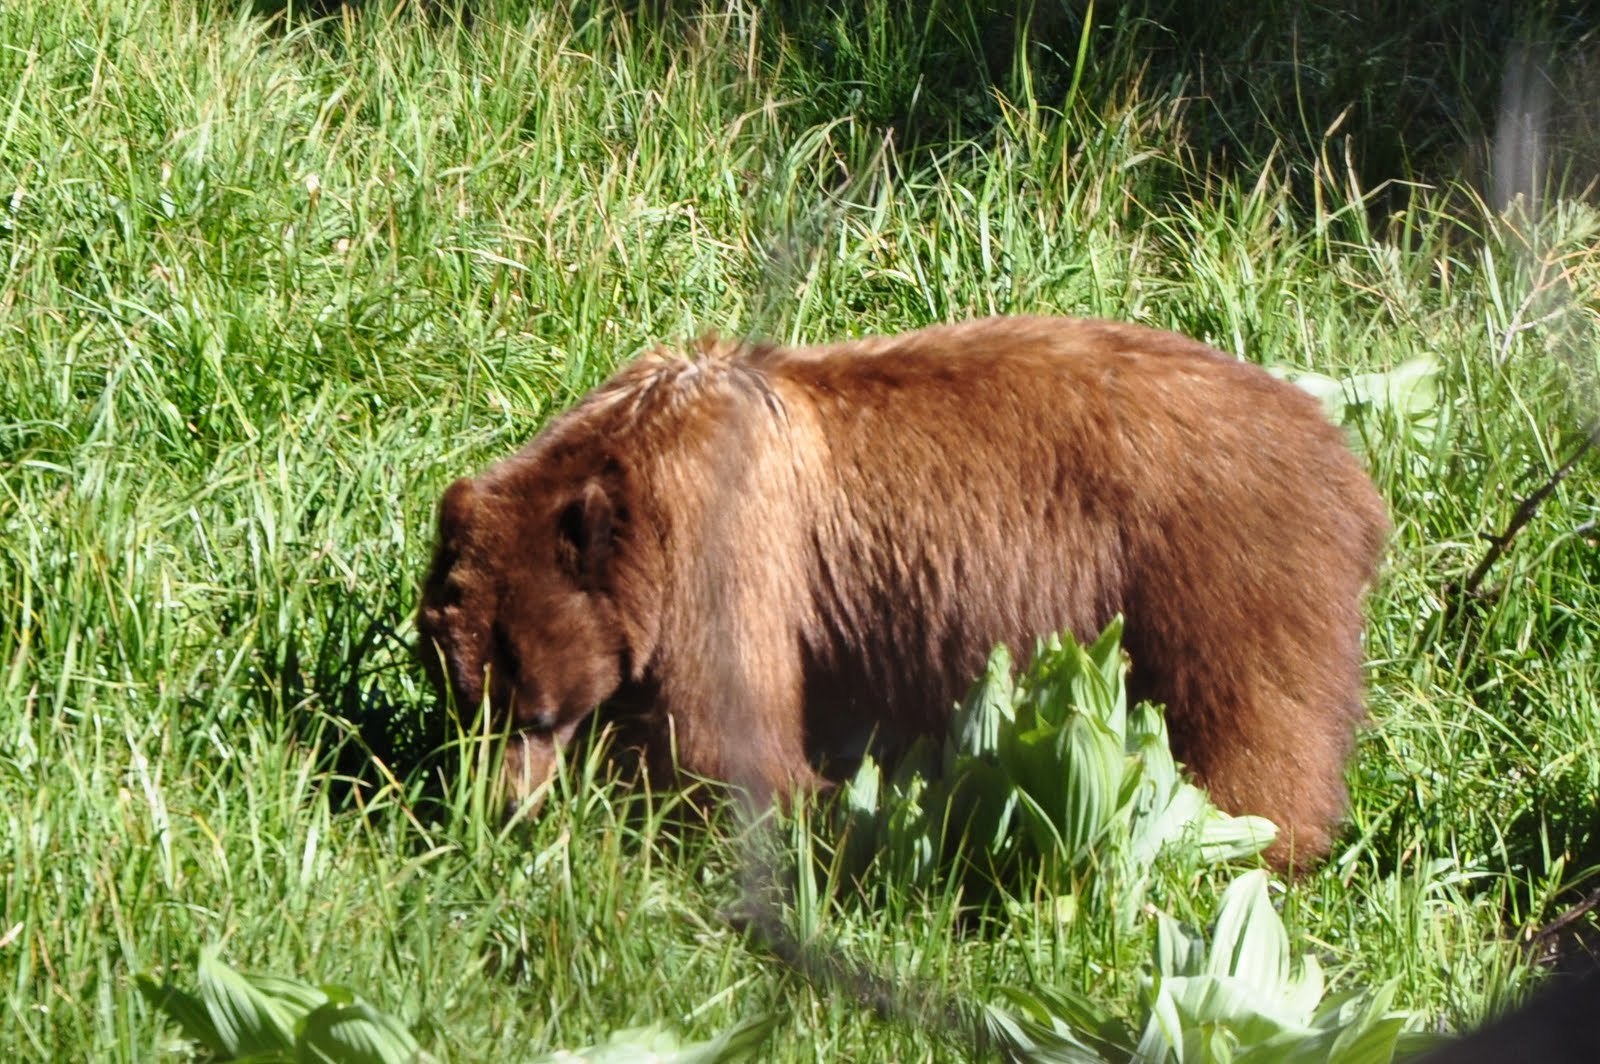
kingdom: Animalia
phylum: Chordata
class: Mammalia
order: Carnivora
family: Ursidae
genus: Ursus
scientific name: Ursus americanus
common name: American black bear
